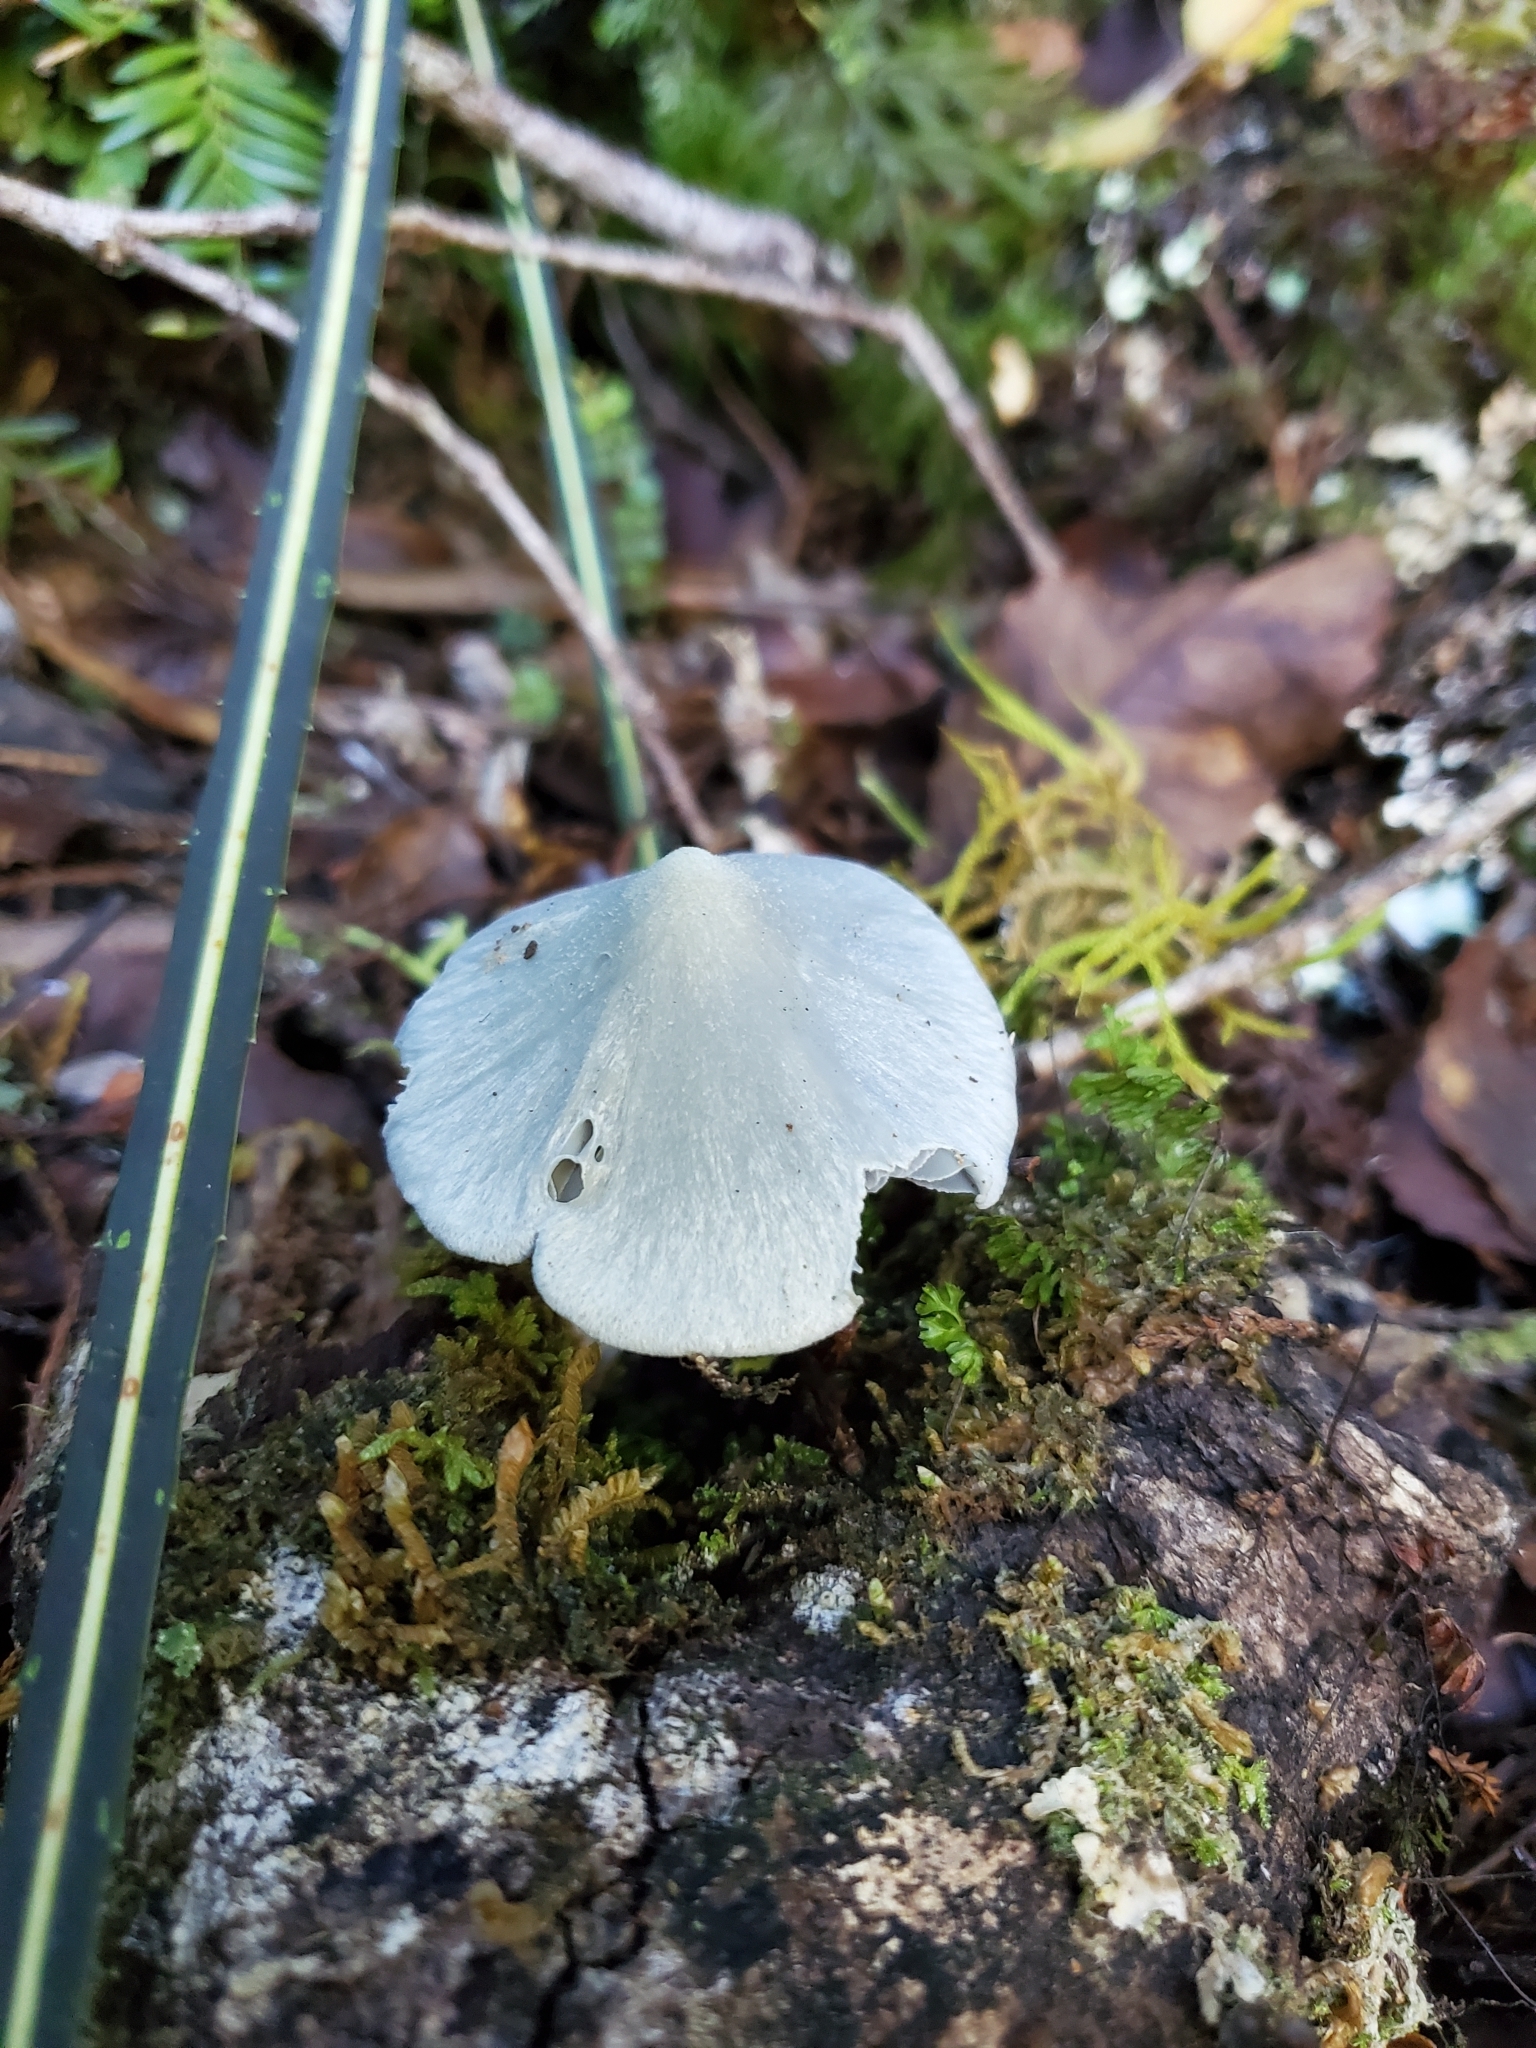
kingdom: Fungi
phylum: Basidiomycota
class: Agaricomycetes
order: Agaricales
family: Entolomataceae
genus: Entoloma
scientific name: Entoloma hochstetteri
